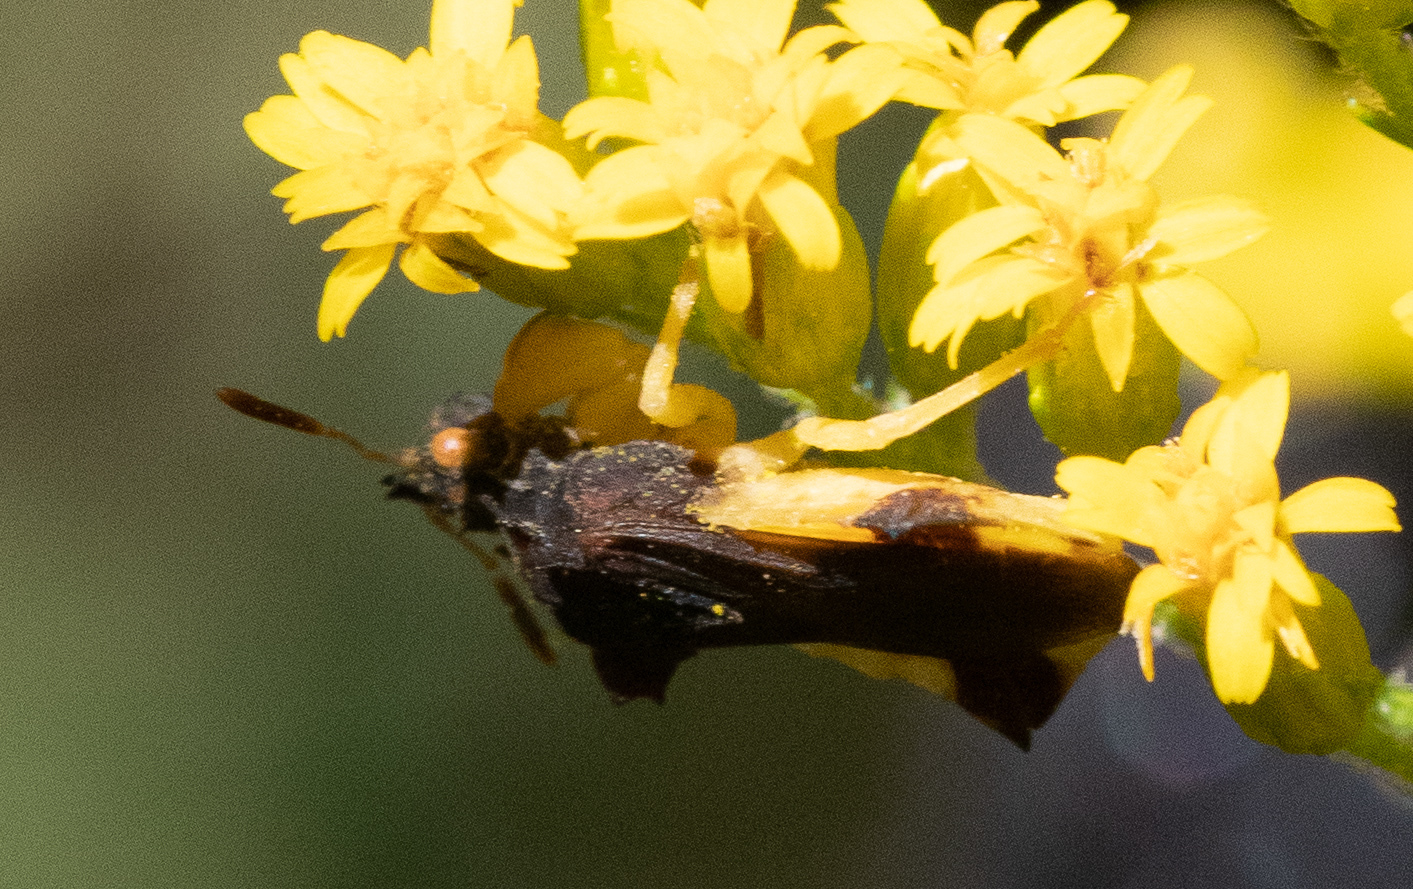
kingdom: Animalia
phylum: Arthropoda
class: Insecta
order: Hemiptera
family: Reduviidae
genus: Phymata
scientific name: Phymata pennsylvanica
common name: Pennsylvania ambush bug
